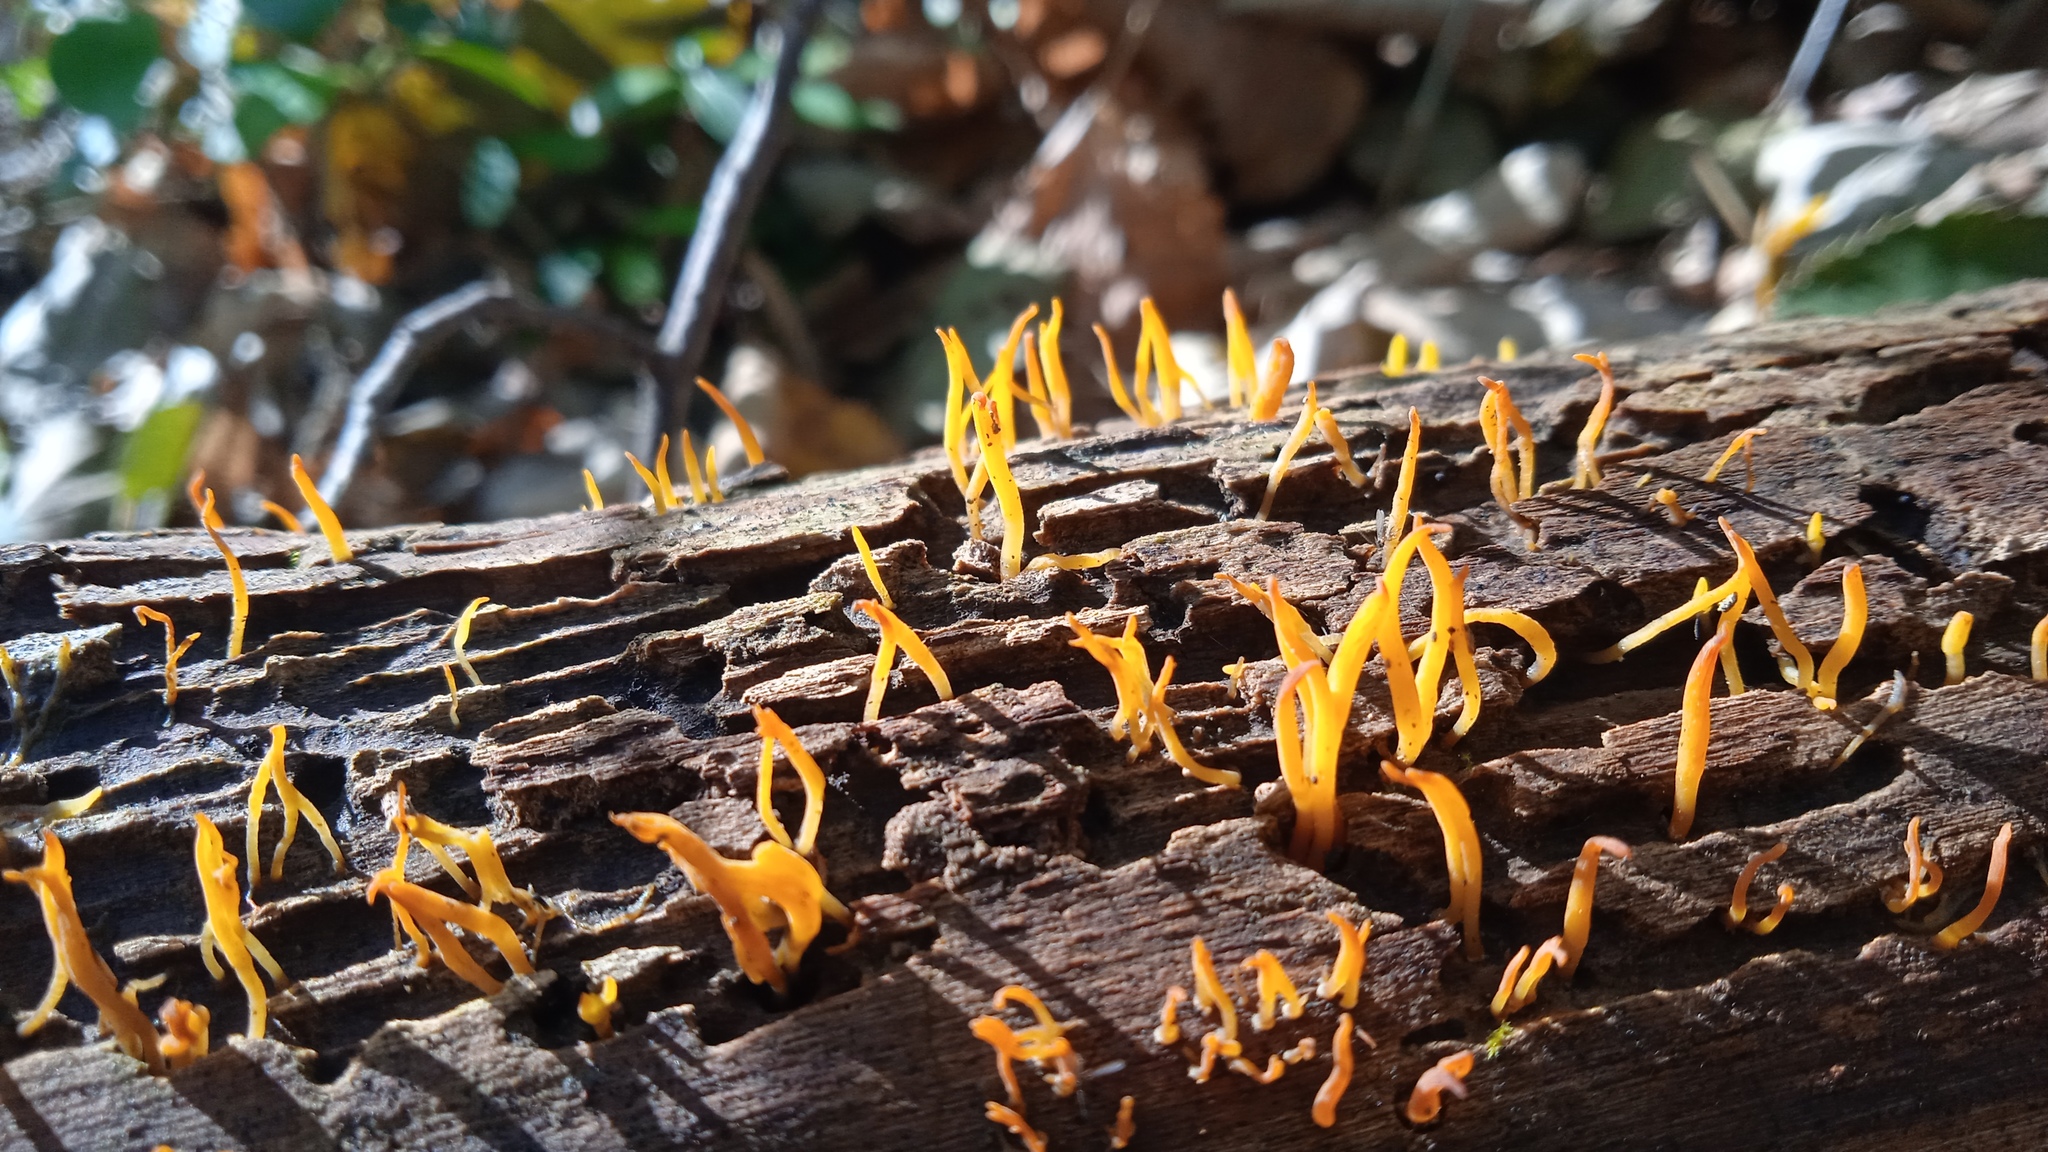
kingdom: Fungi
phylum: Basidiomycota
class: Dacrymycetes
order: Dacrymycetales
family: Dacrymycetaceae
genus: Calocera
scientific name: Calocera cornea
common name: Small stagshorn
